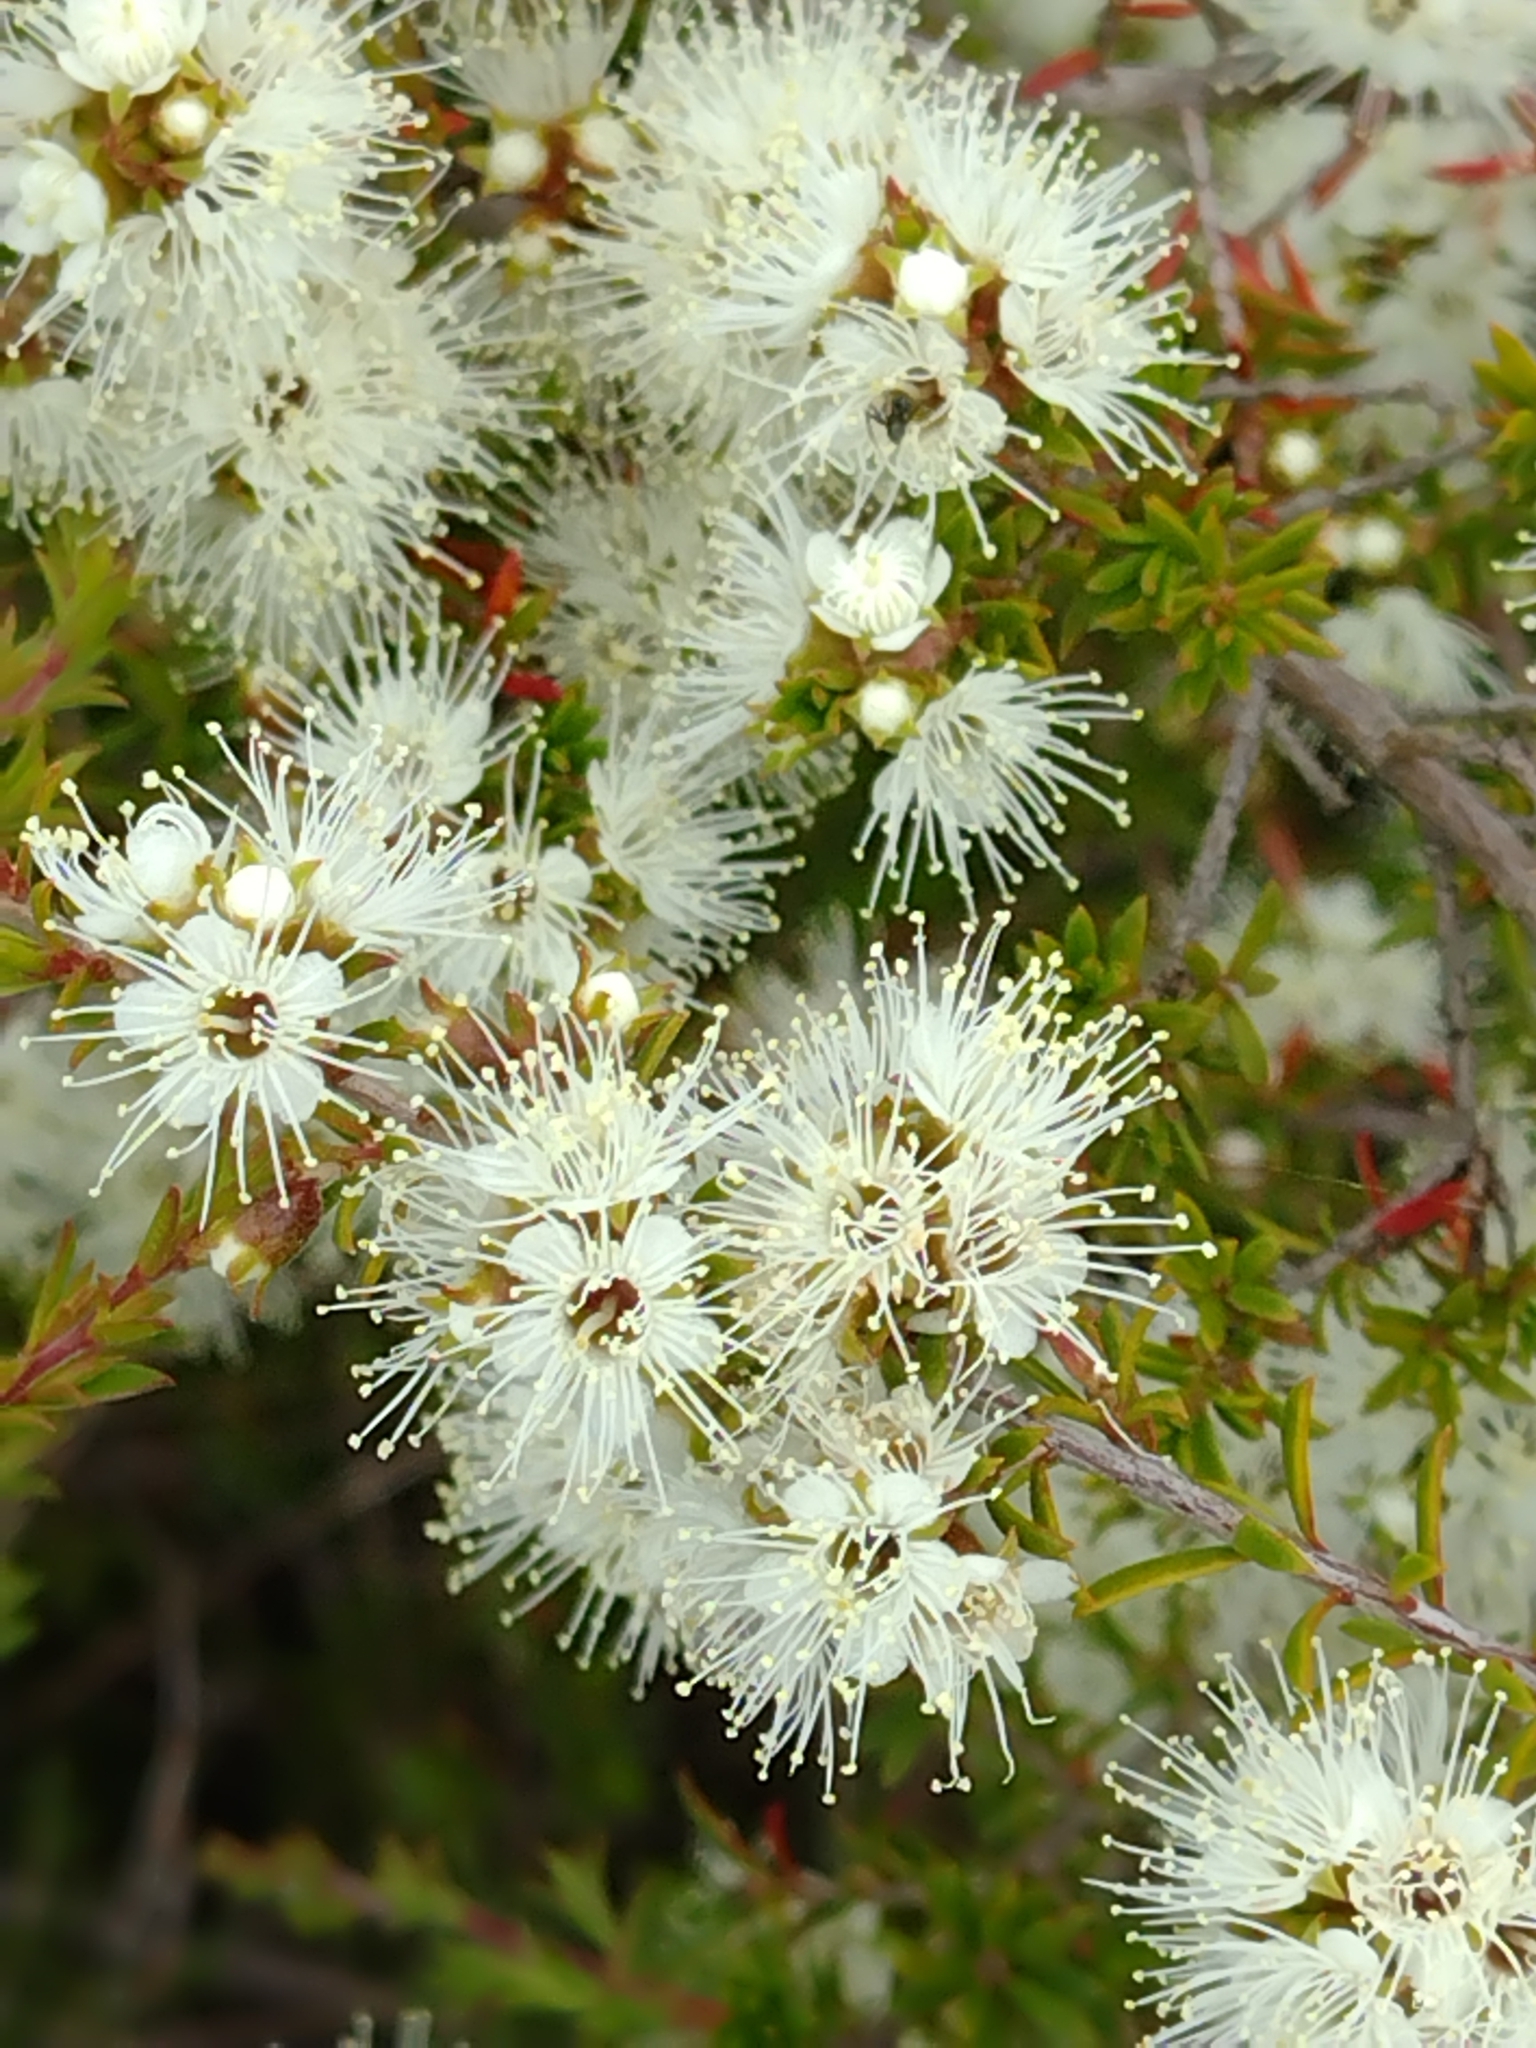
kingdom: Plantae
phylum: Tracheophyta
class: Magnoliopsida
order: Myrtales
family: Myrtaceae
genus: Kunzea
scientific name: Kunzea ambigua
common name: Tickbush
